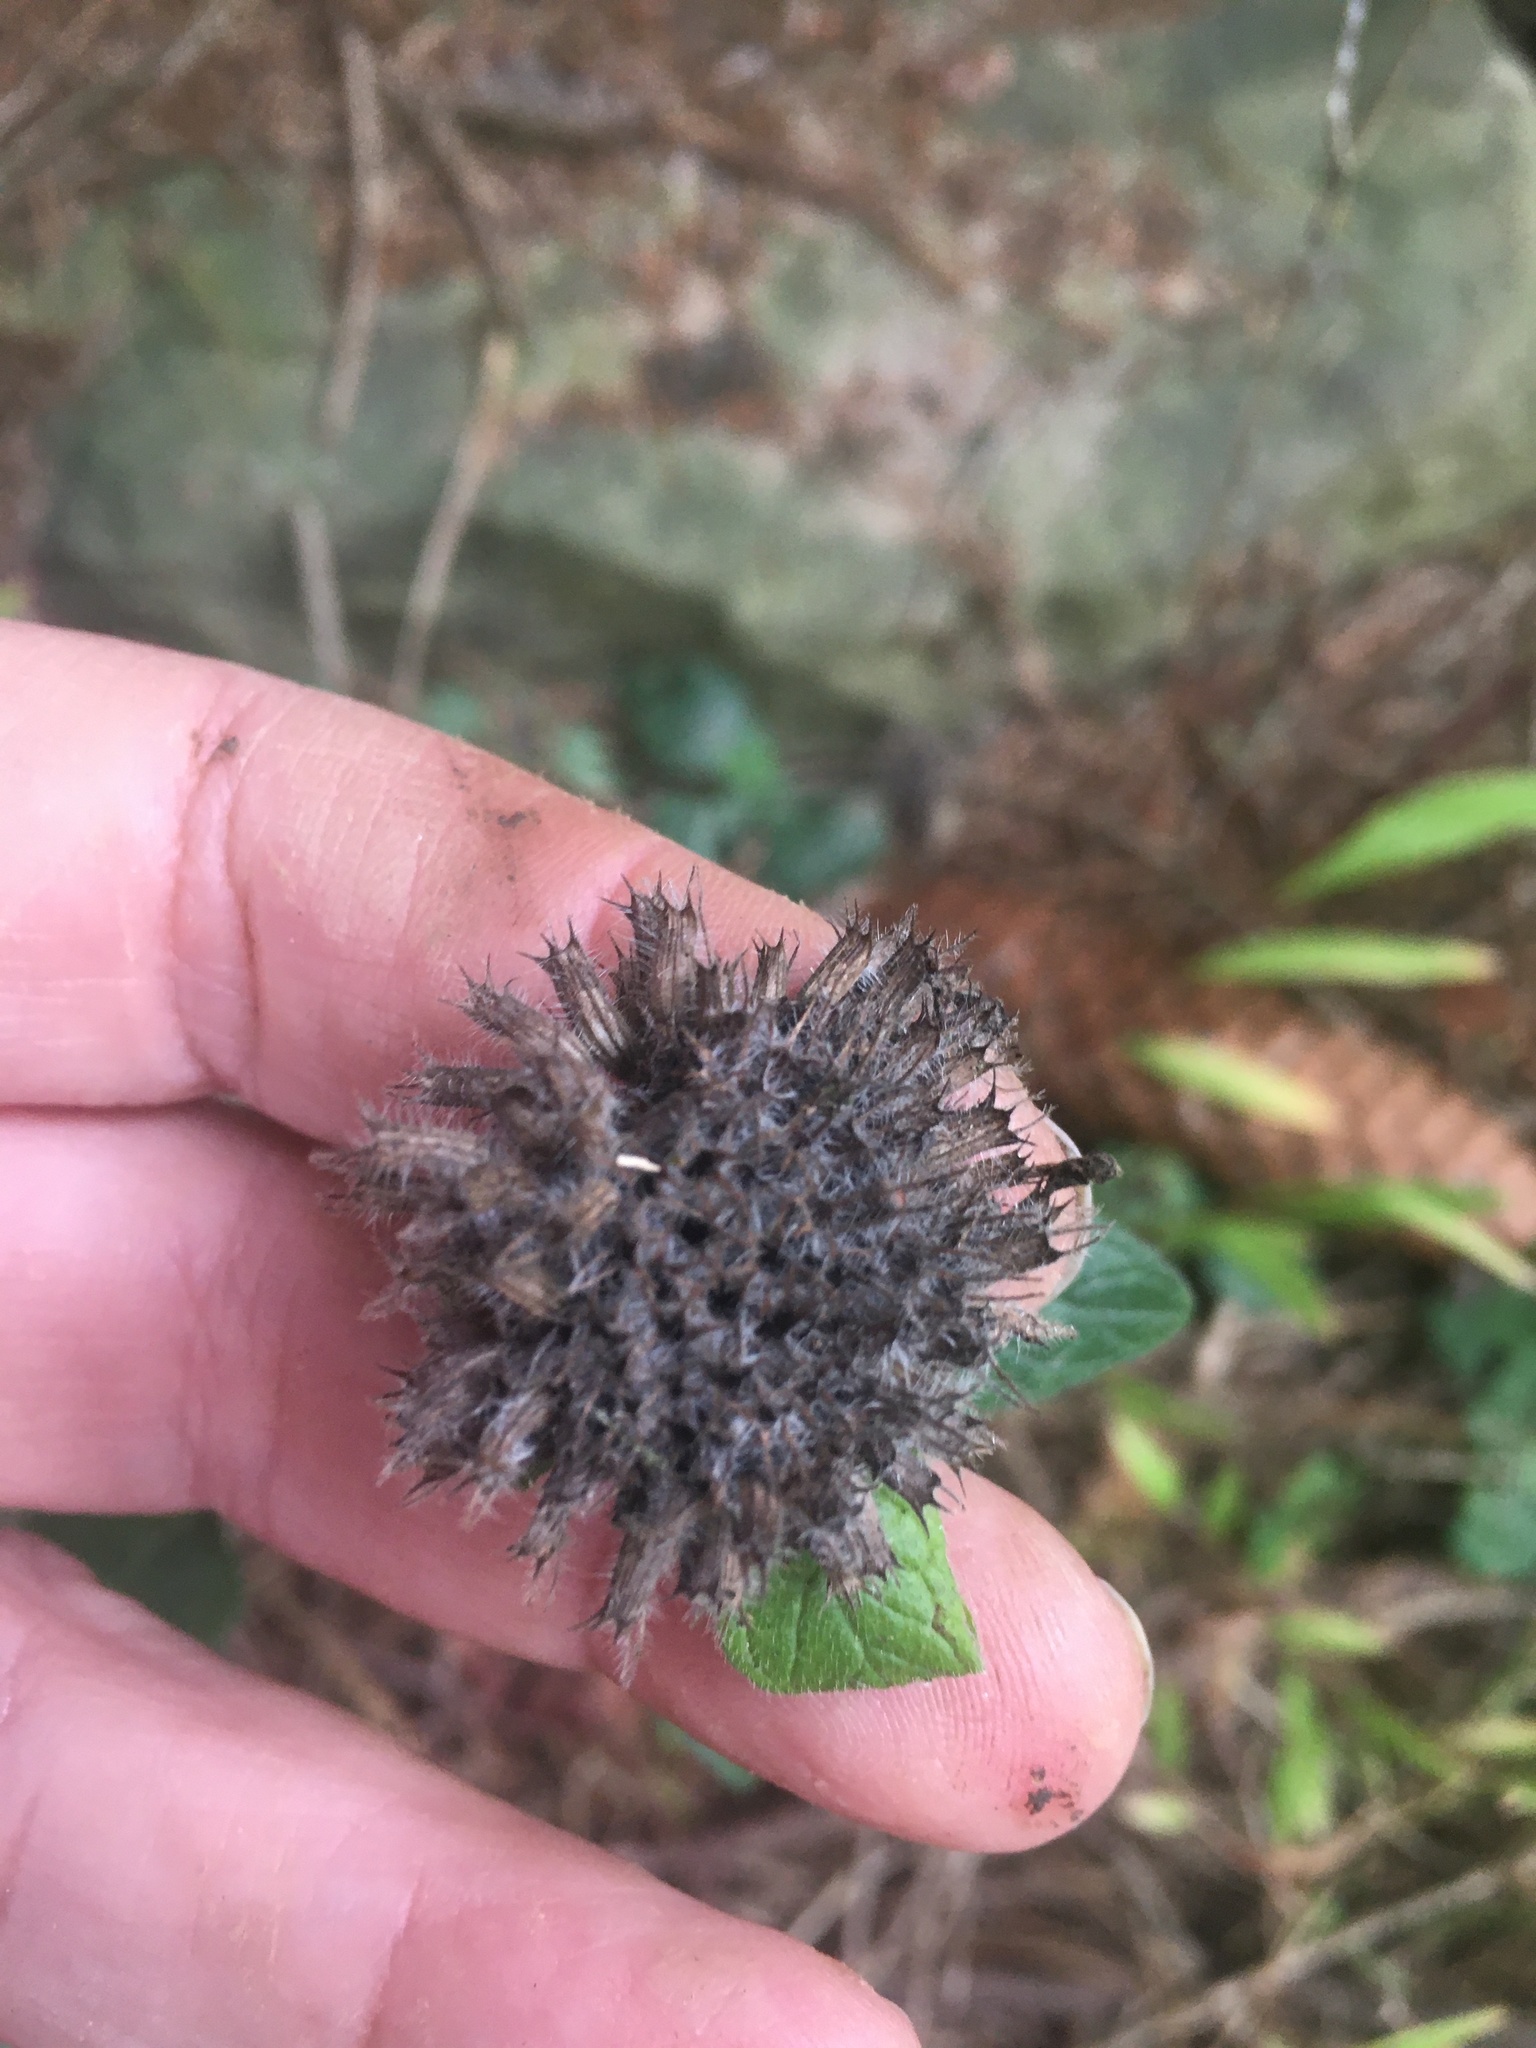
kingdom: Plantae
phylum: Tracheophyta
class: Magnoliopsida
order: Lamiales
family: Lamiaceae
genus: Clinopodium
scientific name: Clinopodium vulgare
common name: Wild basil
